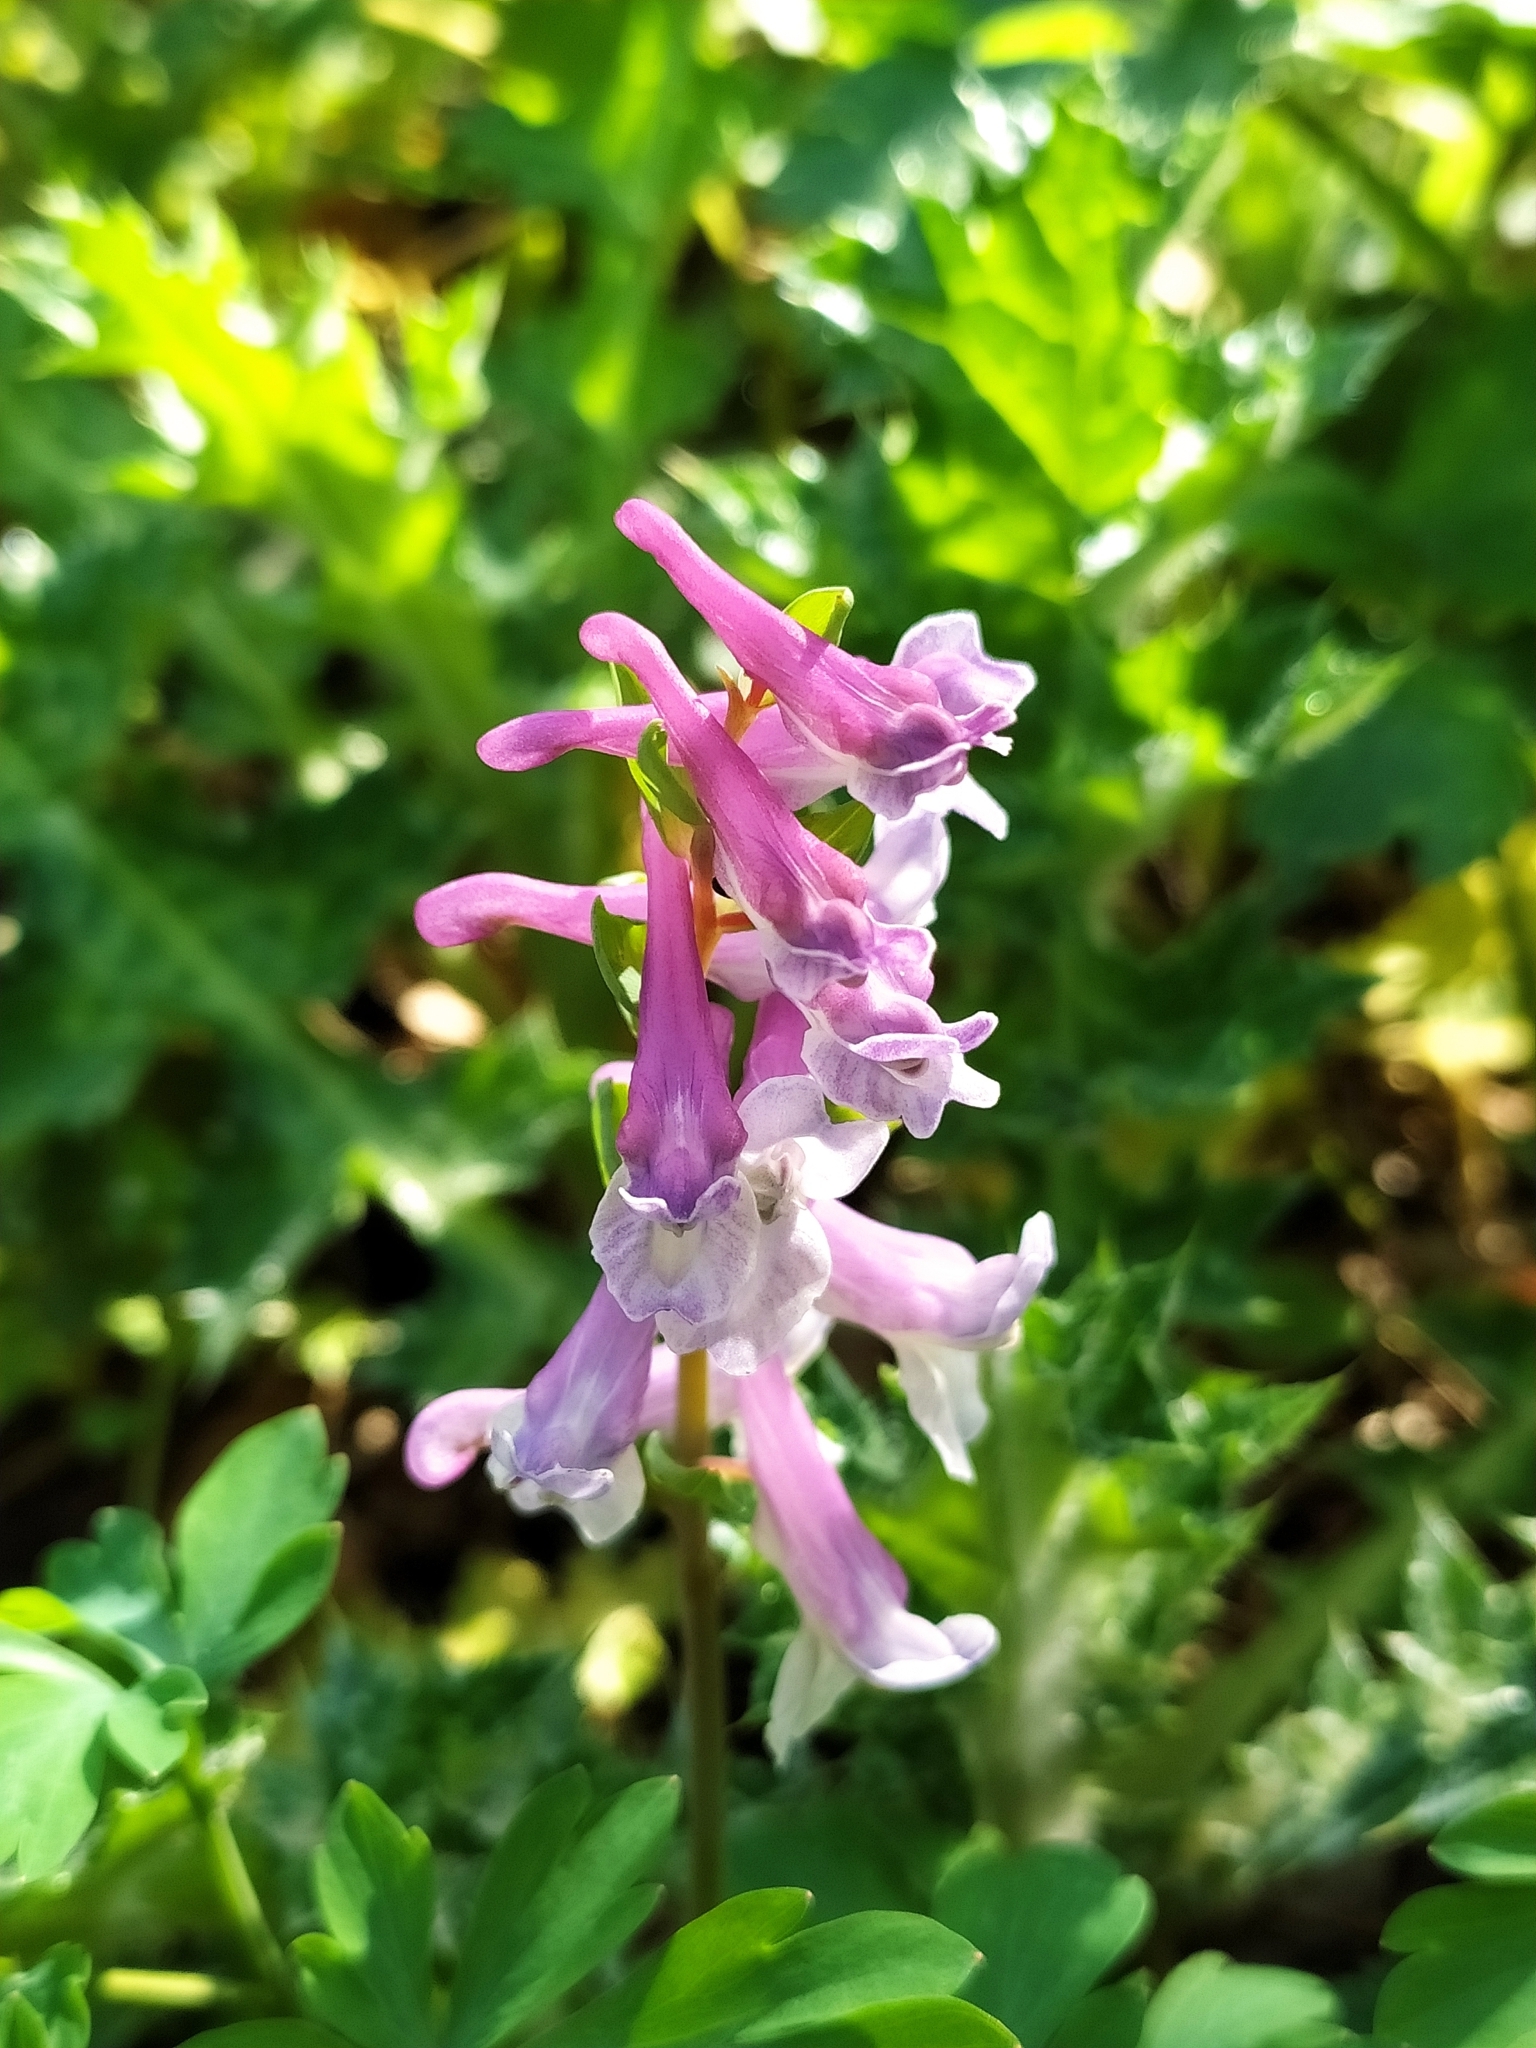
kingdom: Plantae
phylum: Tracheophyta
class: Magnoliopsida
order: Ranunculales
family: Papaveraceae
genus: Corydalis
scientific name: Corydalis cava
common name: Hollowroot
